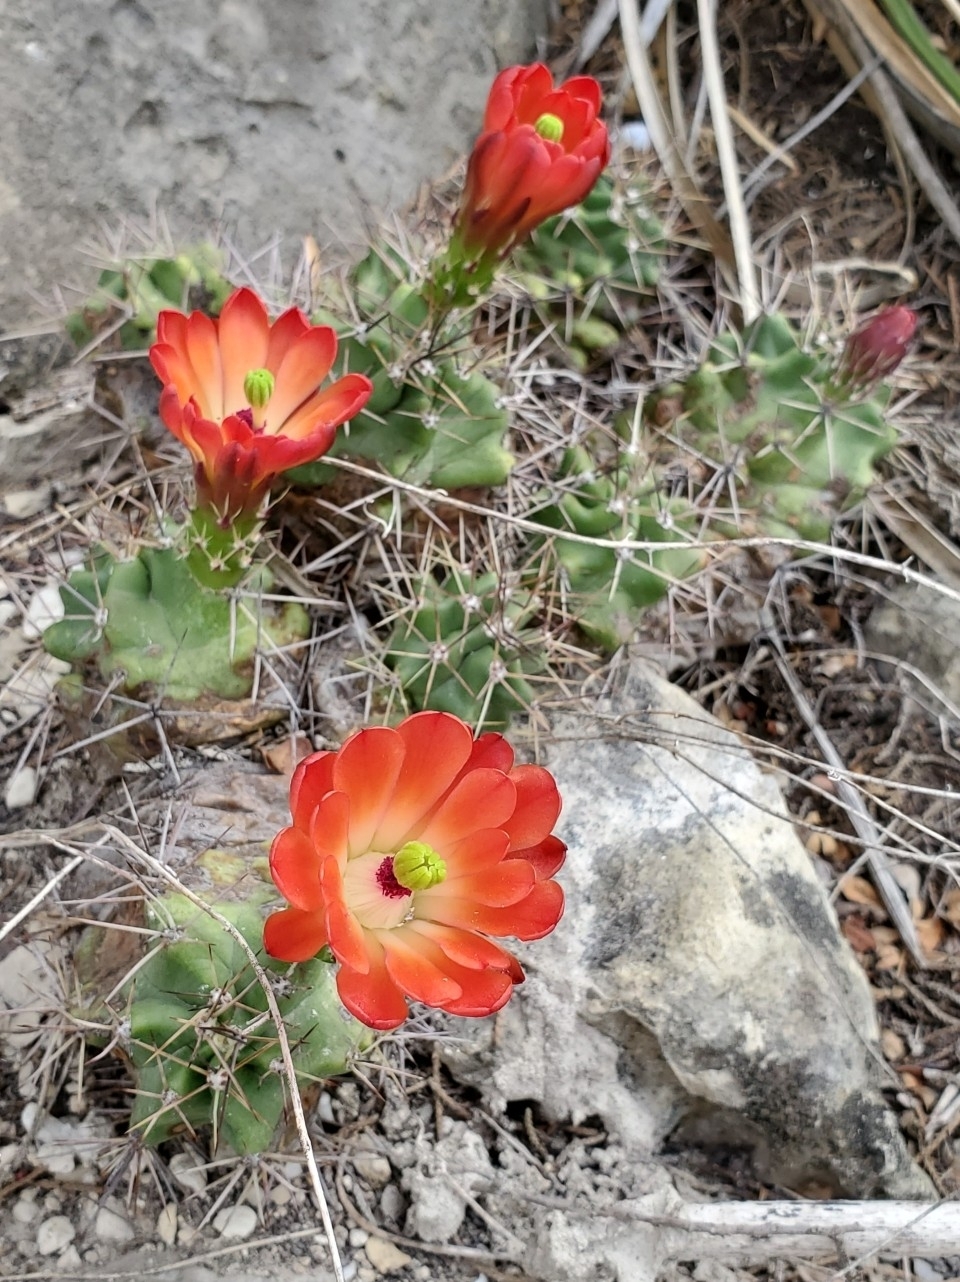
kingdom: Plantae
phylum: Tracheophyta
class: Magnoliopsida
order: Caryophyllales
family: Cactaceae
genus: Echinocereus
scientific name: Echinocereus coccineus
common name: Scarlet hedgehog cactus
